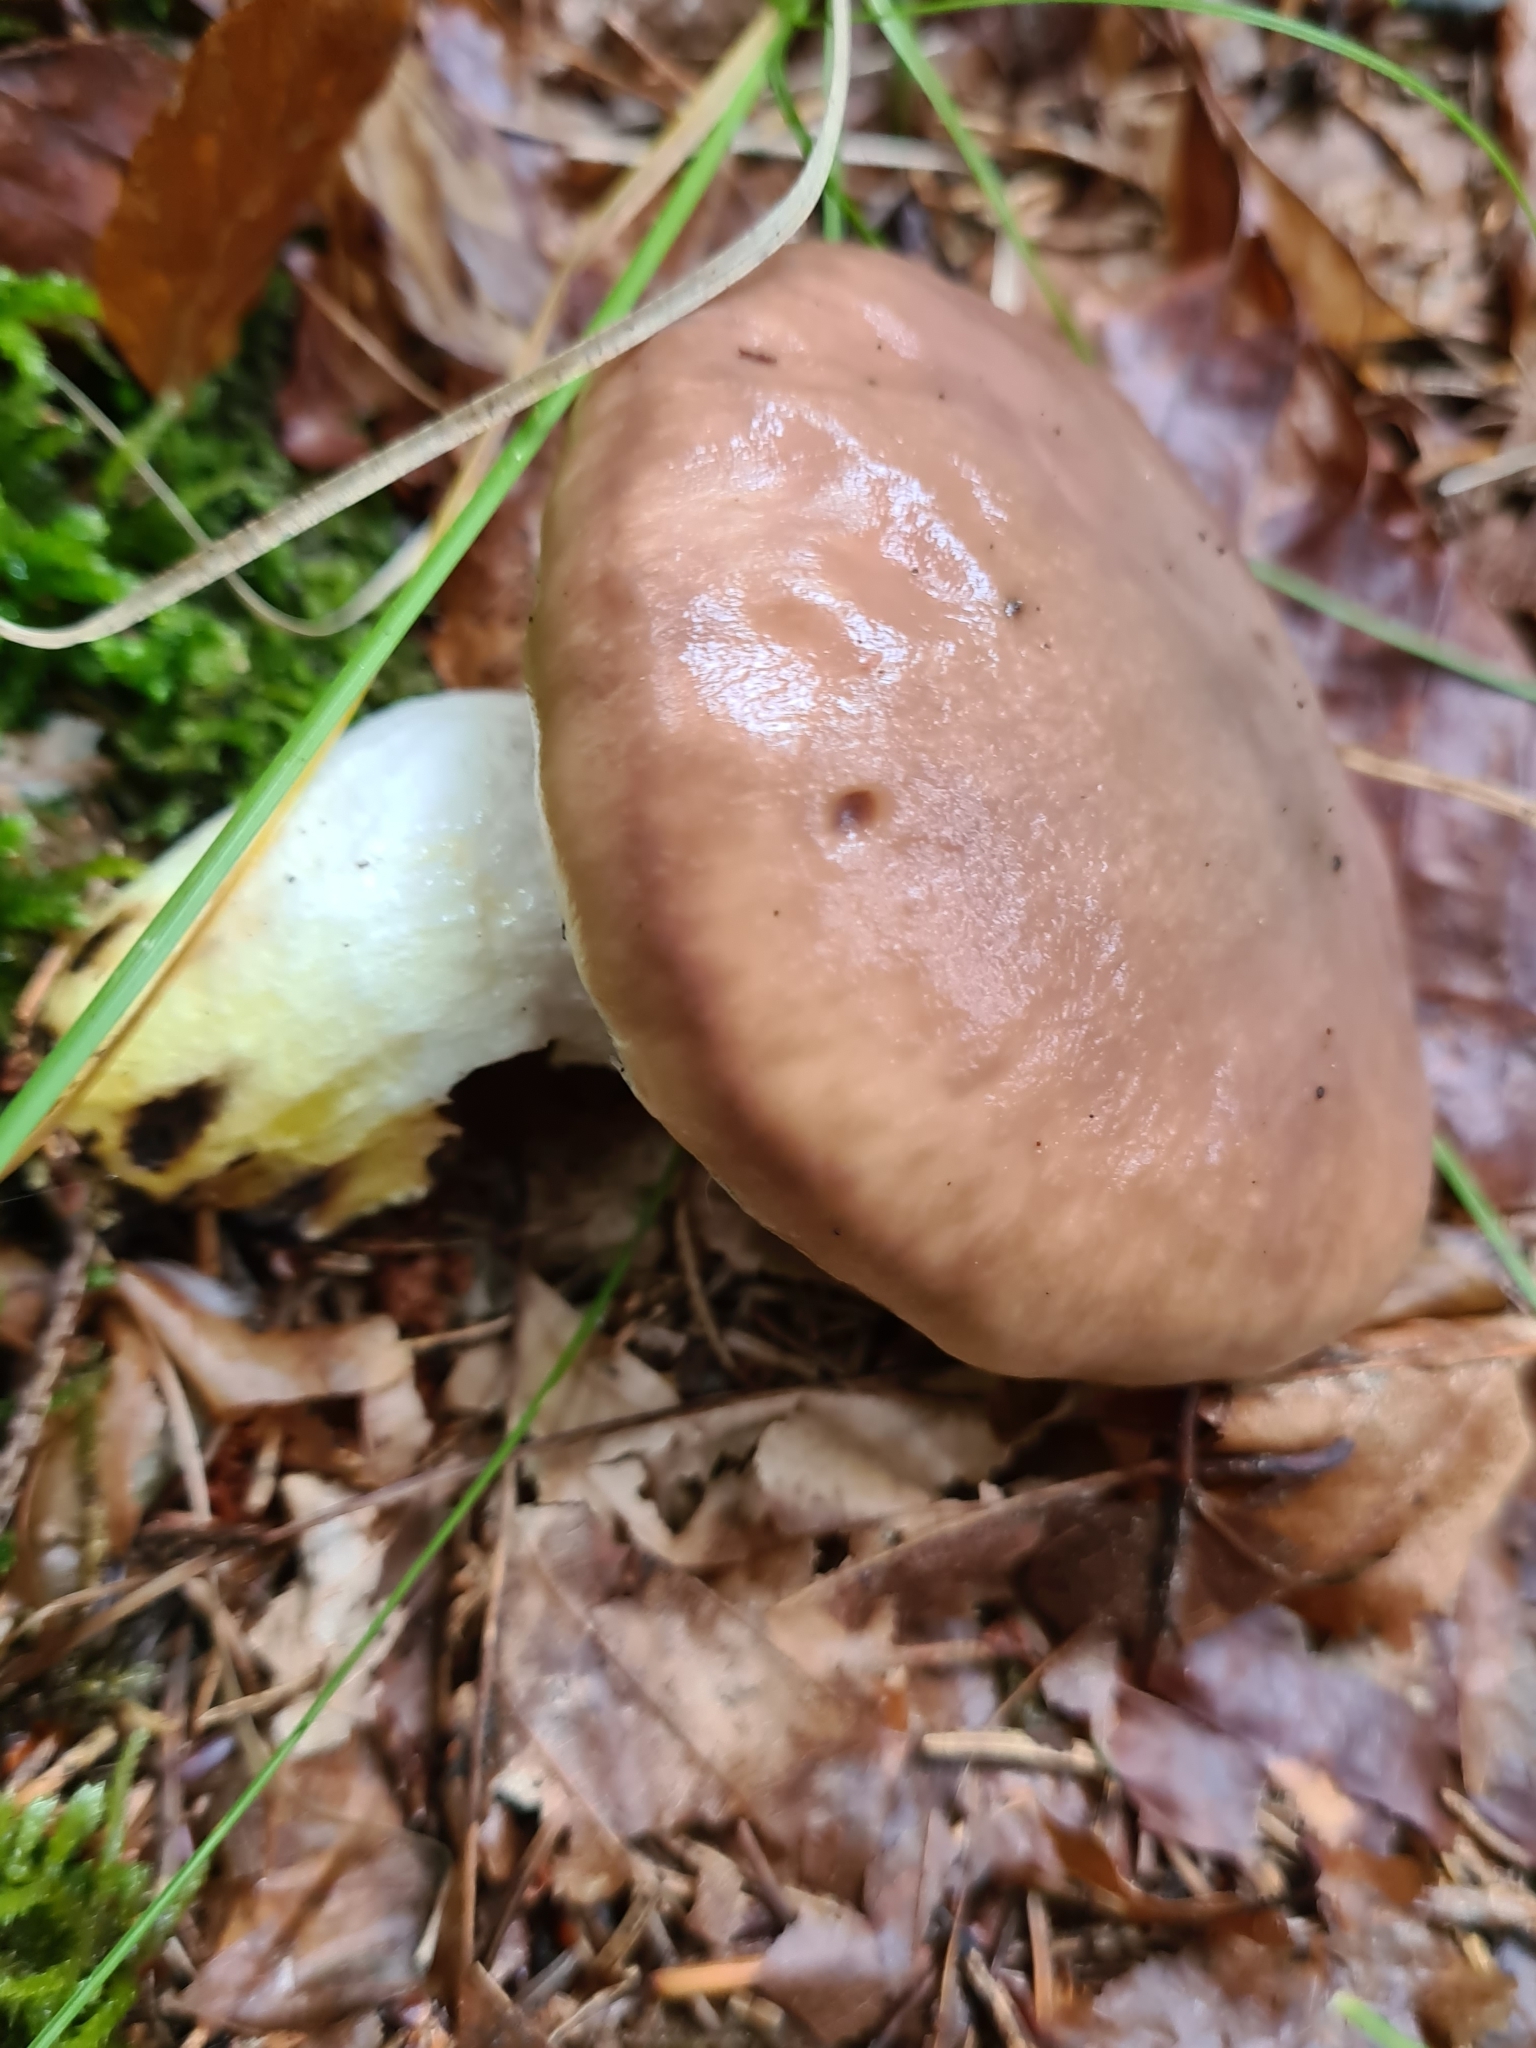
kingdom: Fungi
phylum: Basidiomycota
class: Agaricomycetes
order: Boletales
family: Gomphidiaceae
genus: Gomphidius
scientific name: Gomphidius glutinosus
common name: Slimy spike
